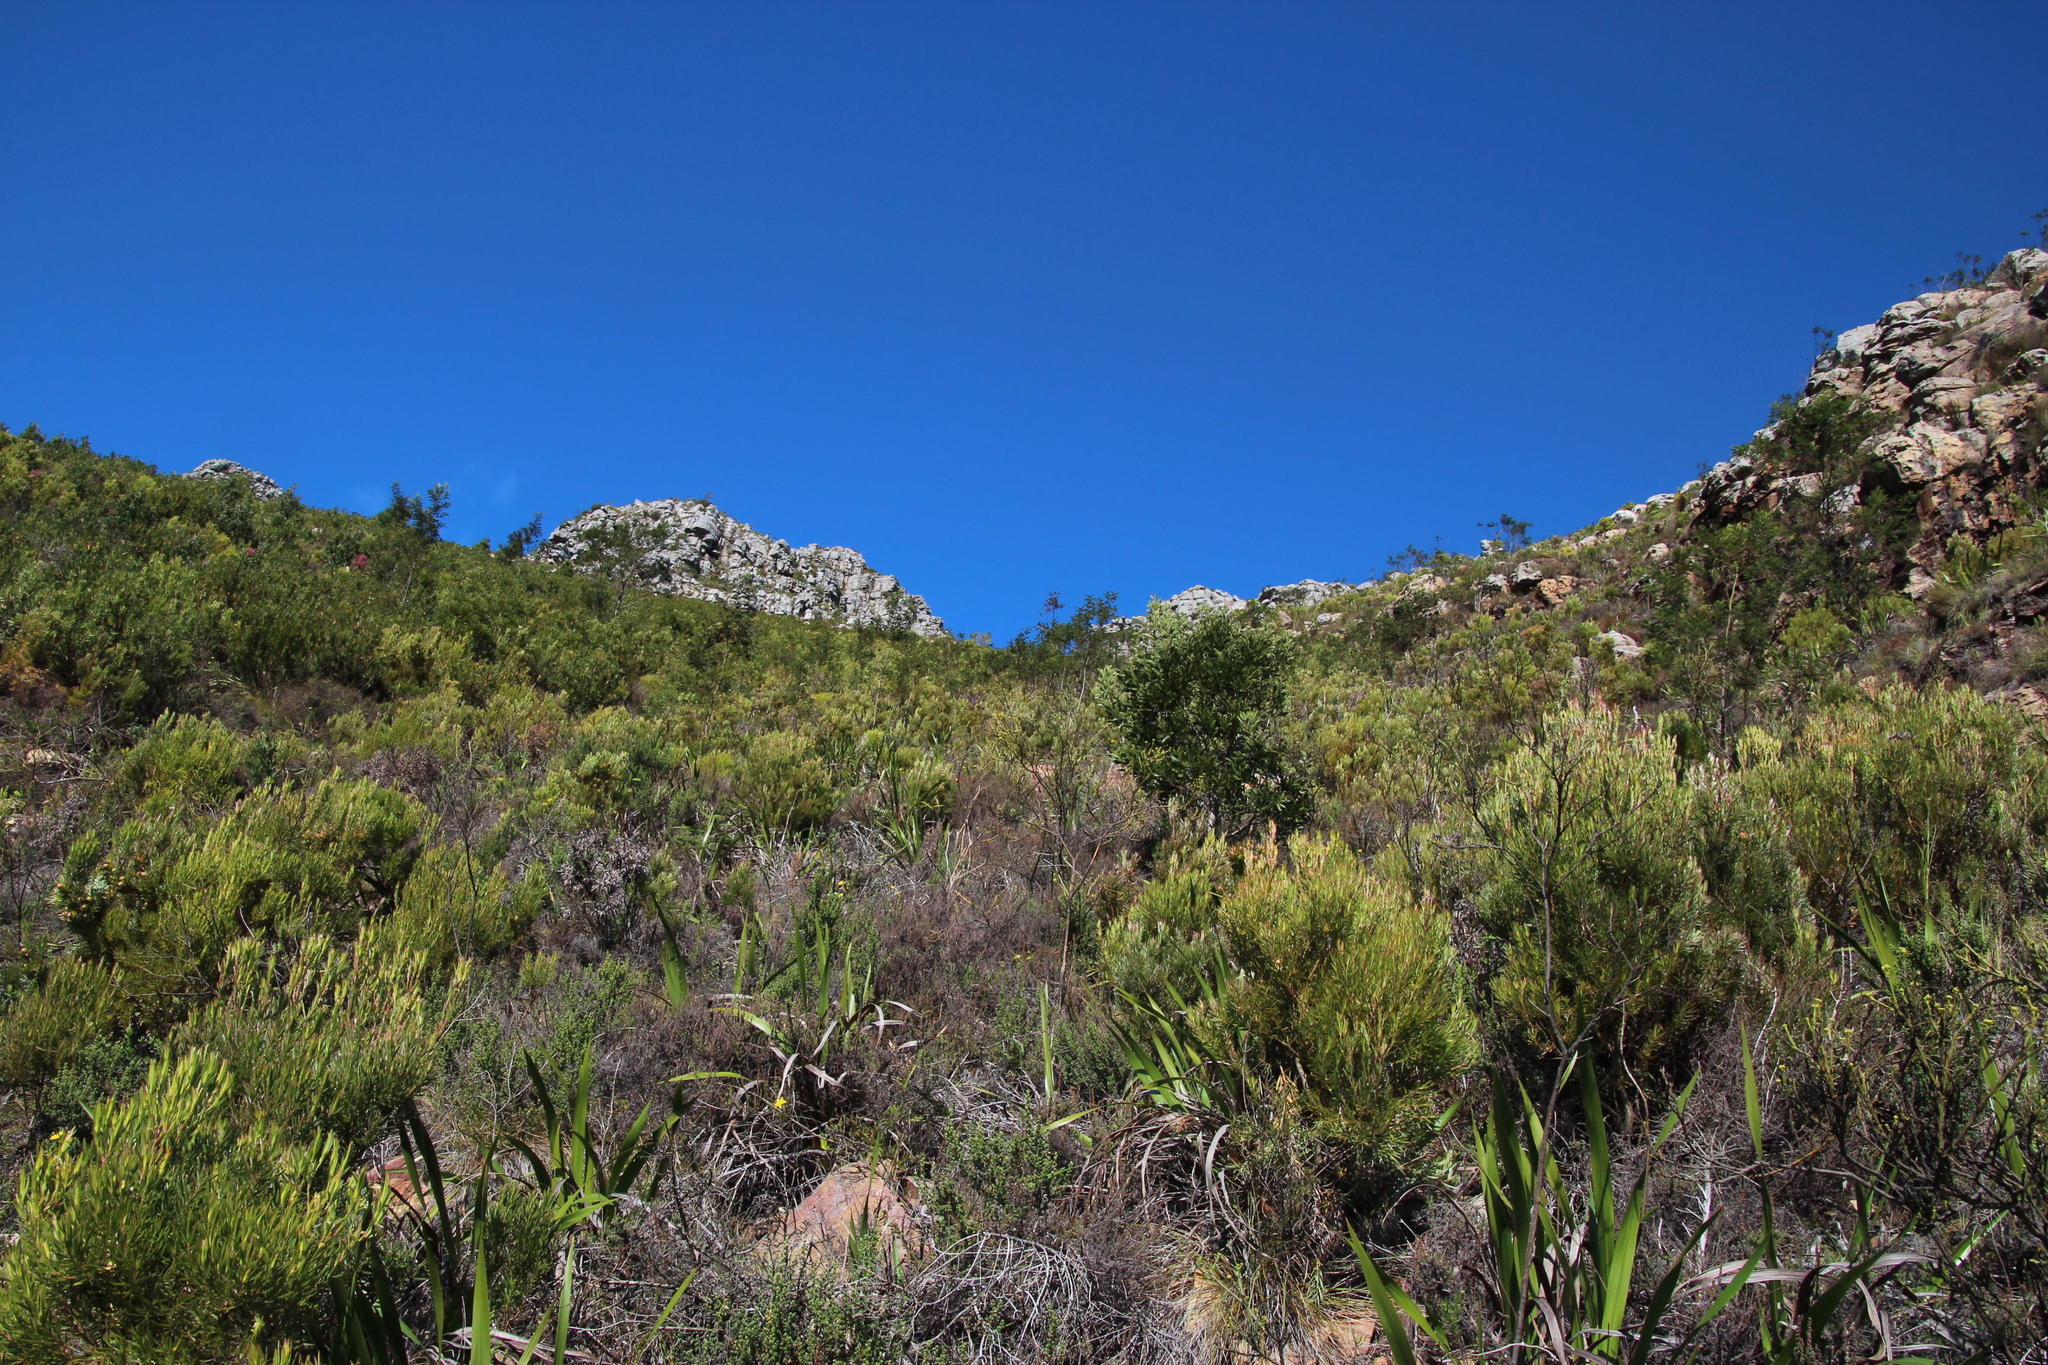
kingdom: Plantae
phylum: Tracheophyta
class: Magnoliopsida
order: Fabales
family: Fabaceae
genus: Acacia
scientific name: Acacia mearnsii
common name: Black wattle
